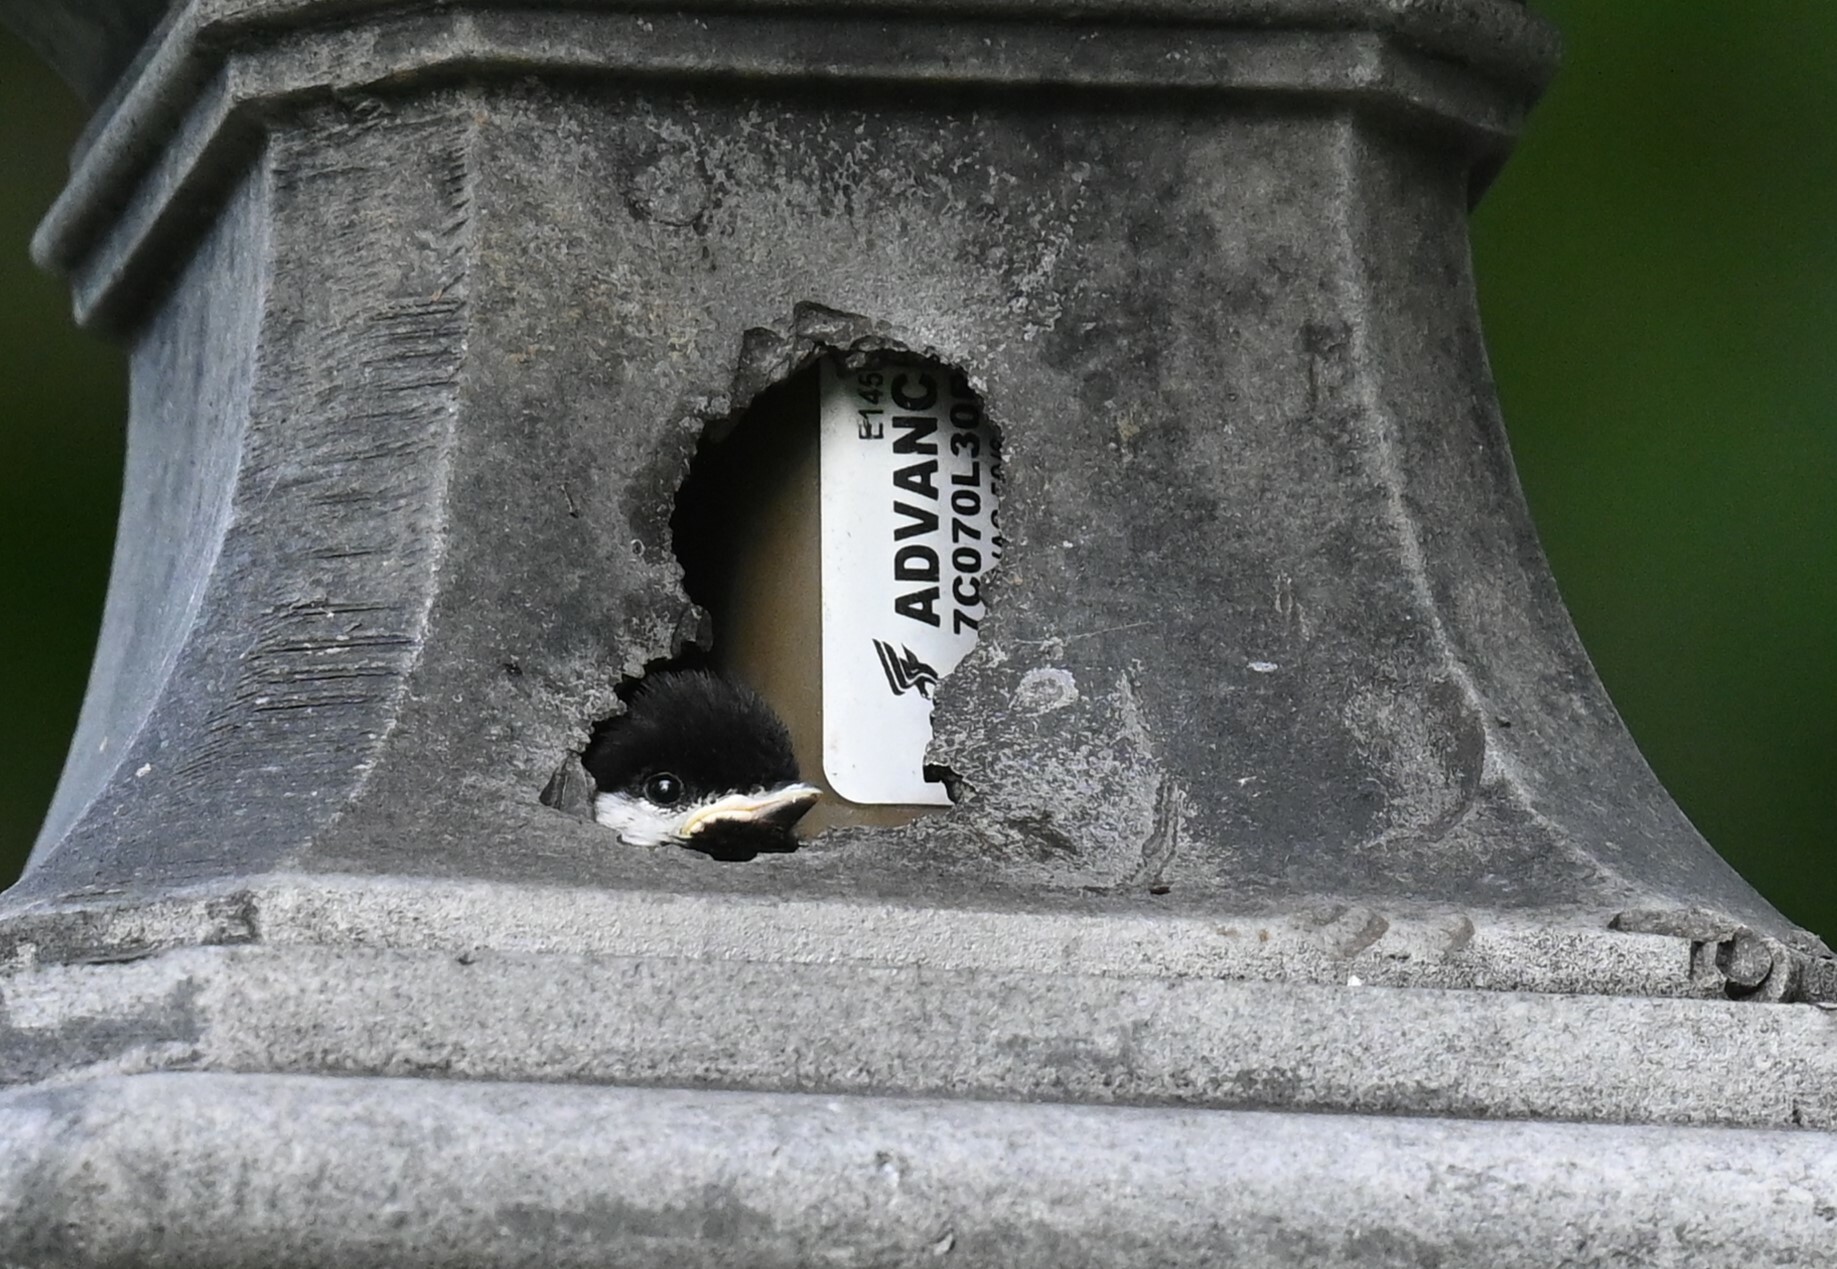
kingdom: Animalia
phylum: Chordata
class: Aves
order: Passeriformes
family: Paridae
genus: Poecile
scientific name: Poecile
